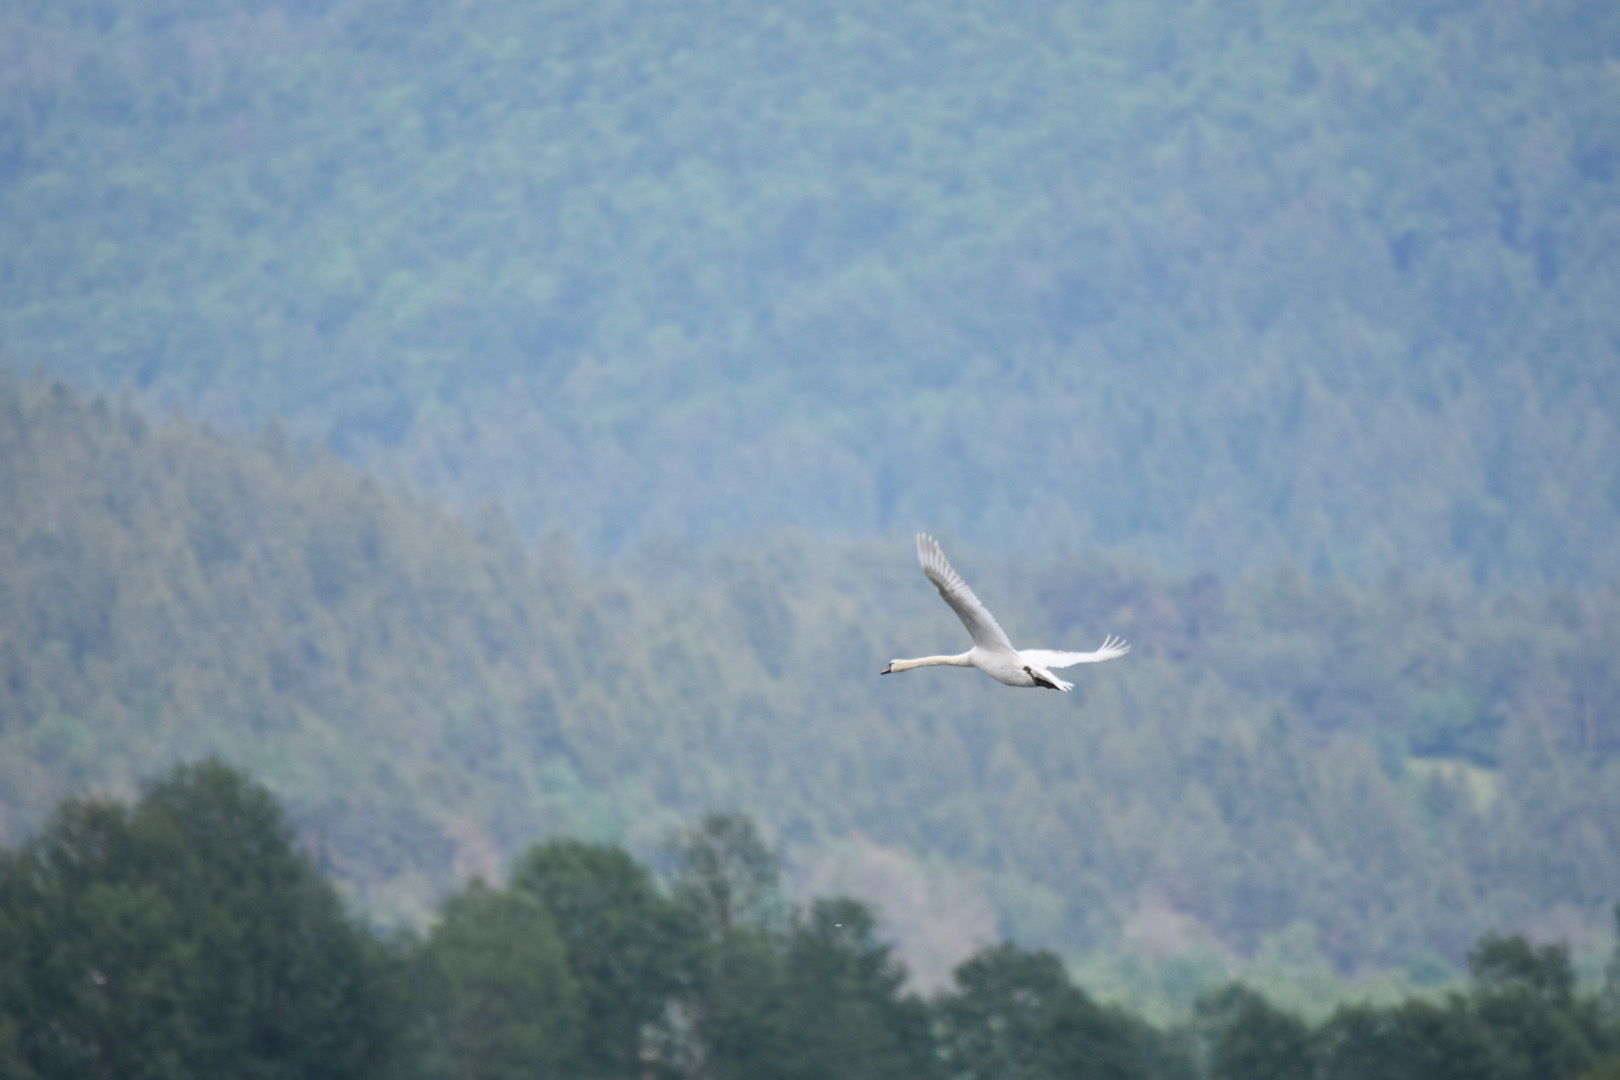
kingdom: Animalia
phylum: Chordata
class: Aves
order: Anseriformes
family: Anatidae
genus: Cygnus
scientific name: Cygnus olor
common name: Mute swan
